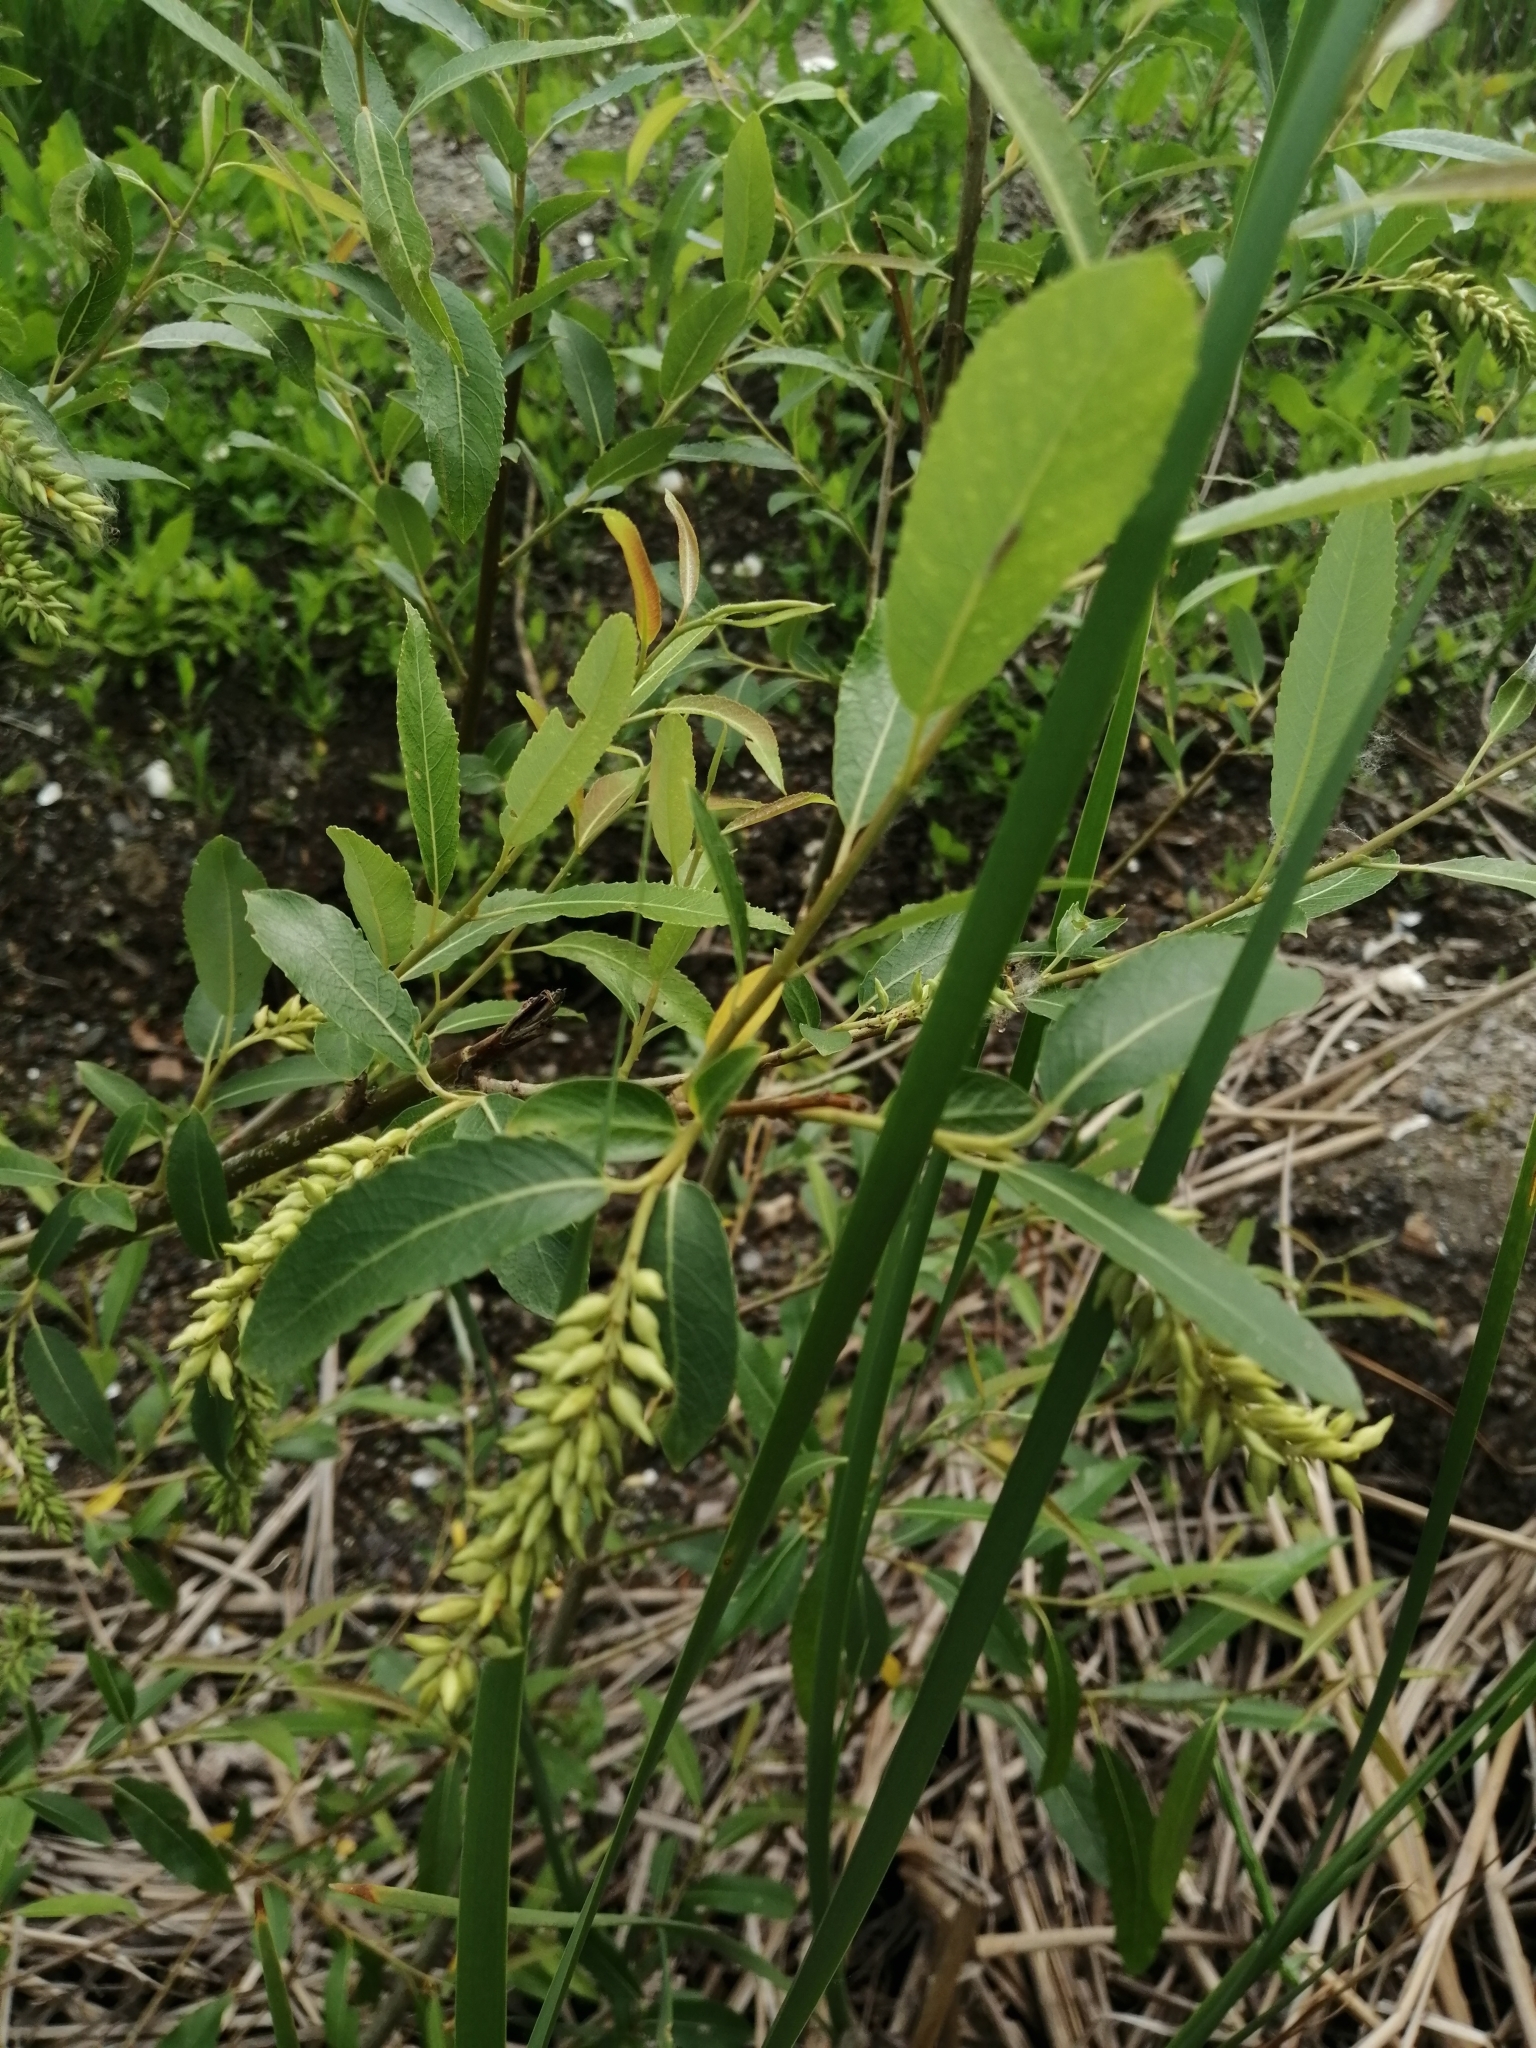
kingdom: Plantae
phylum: Tracheophyta
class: Magnoliopsida
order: Malpighiales
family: Salicaceae
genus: Salix
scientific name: Salix triandra
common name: Almond willow
